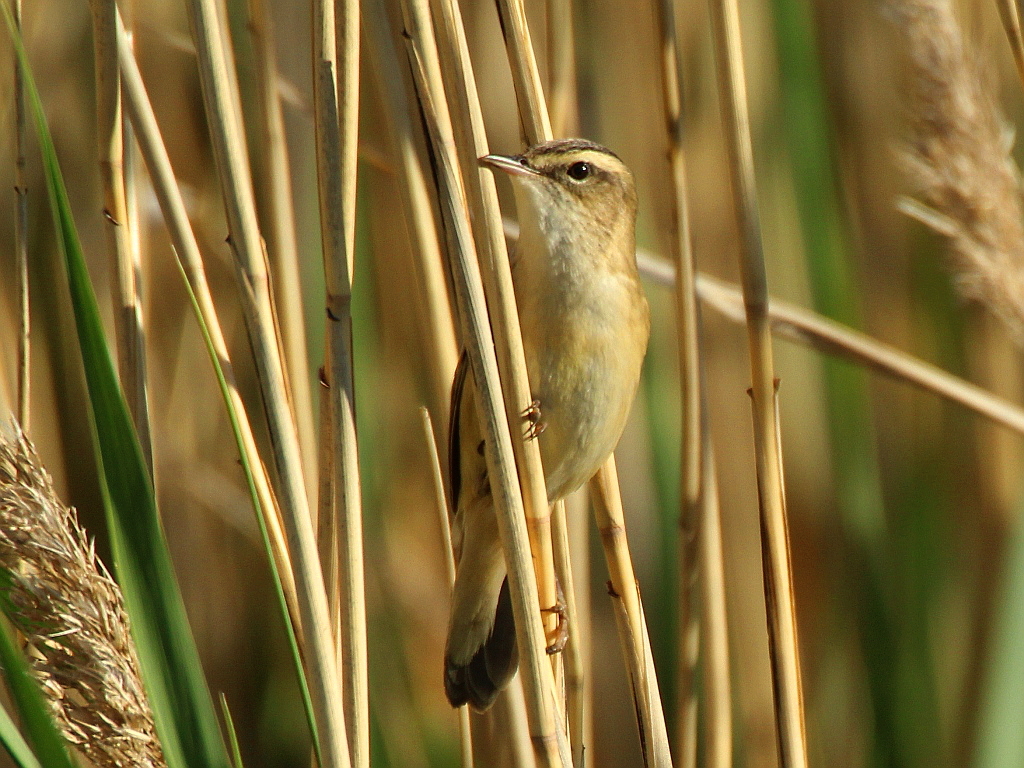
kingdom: Animalia
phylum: Chordata
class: Aves
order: Passeriformes
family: Acrocephalidae
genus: Acrocephalus
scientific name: Acrocephalus schoenobaenus
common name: Sedge warbler
